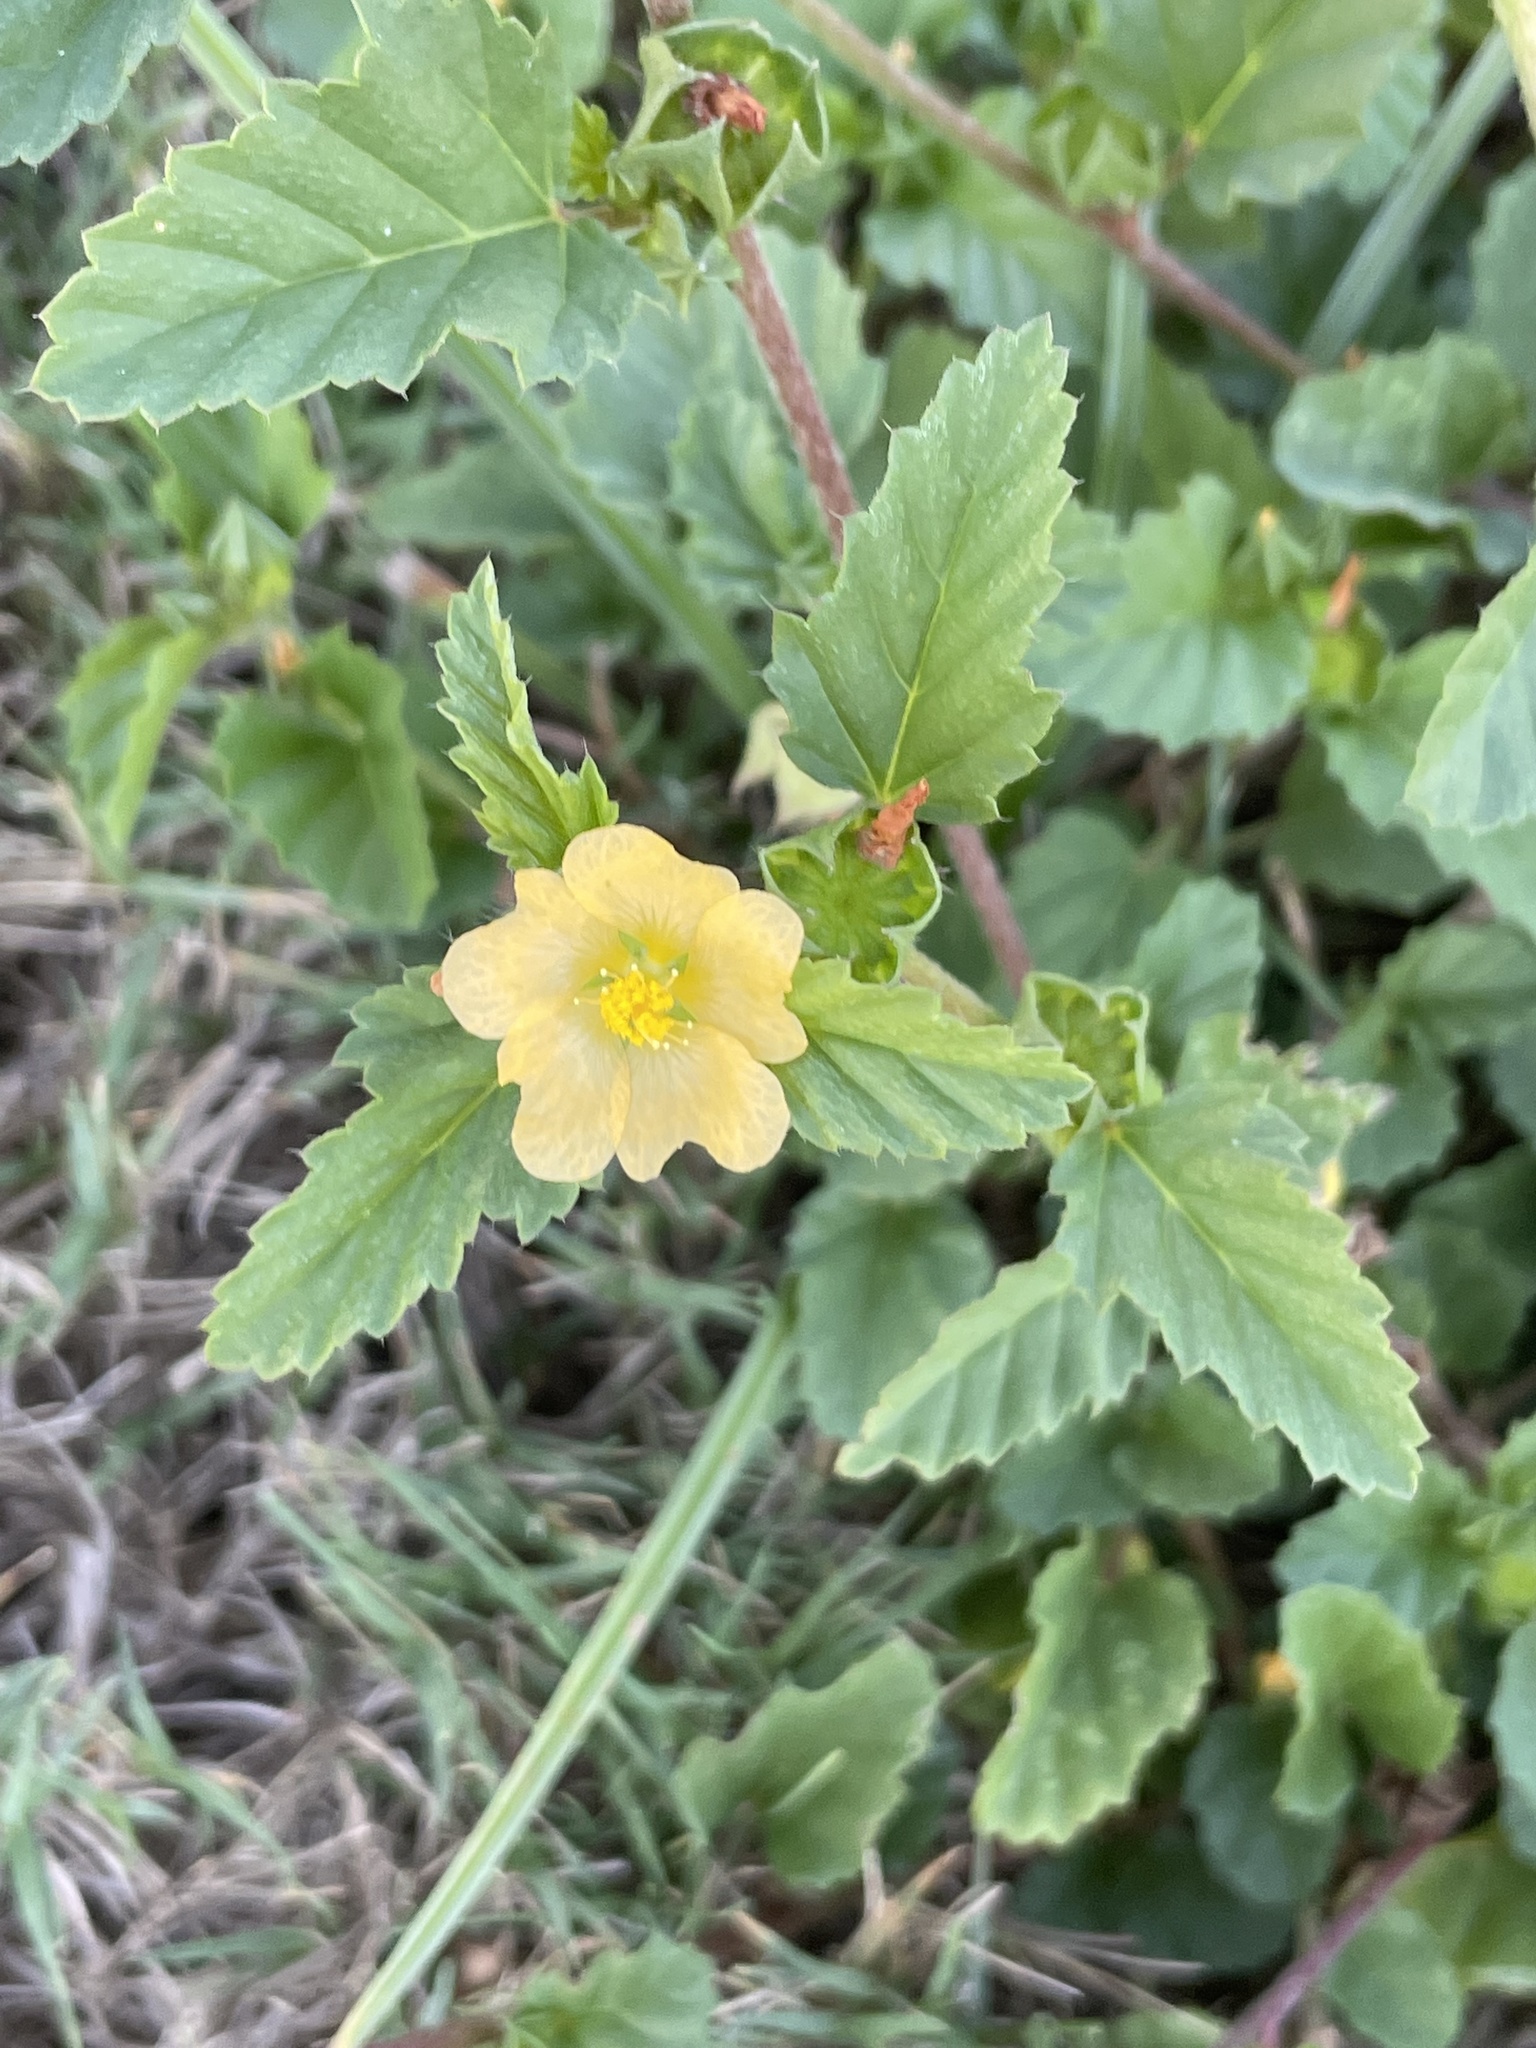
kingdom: Plantae
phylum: Tracheophyta
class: Magnoliopsida
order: Malvales
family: Malvaceae
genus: Malvastrum
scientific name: Malvastrum coromandelianum
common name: Threelobe false mallow
